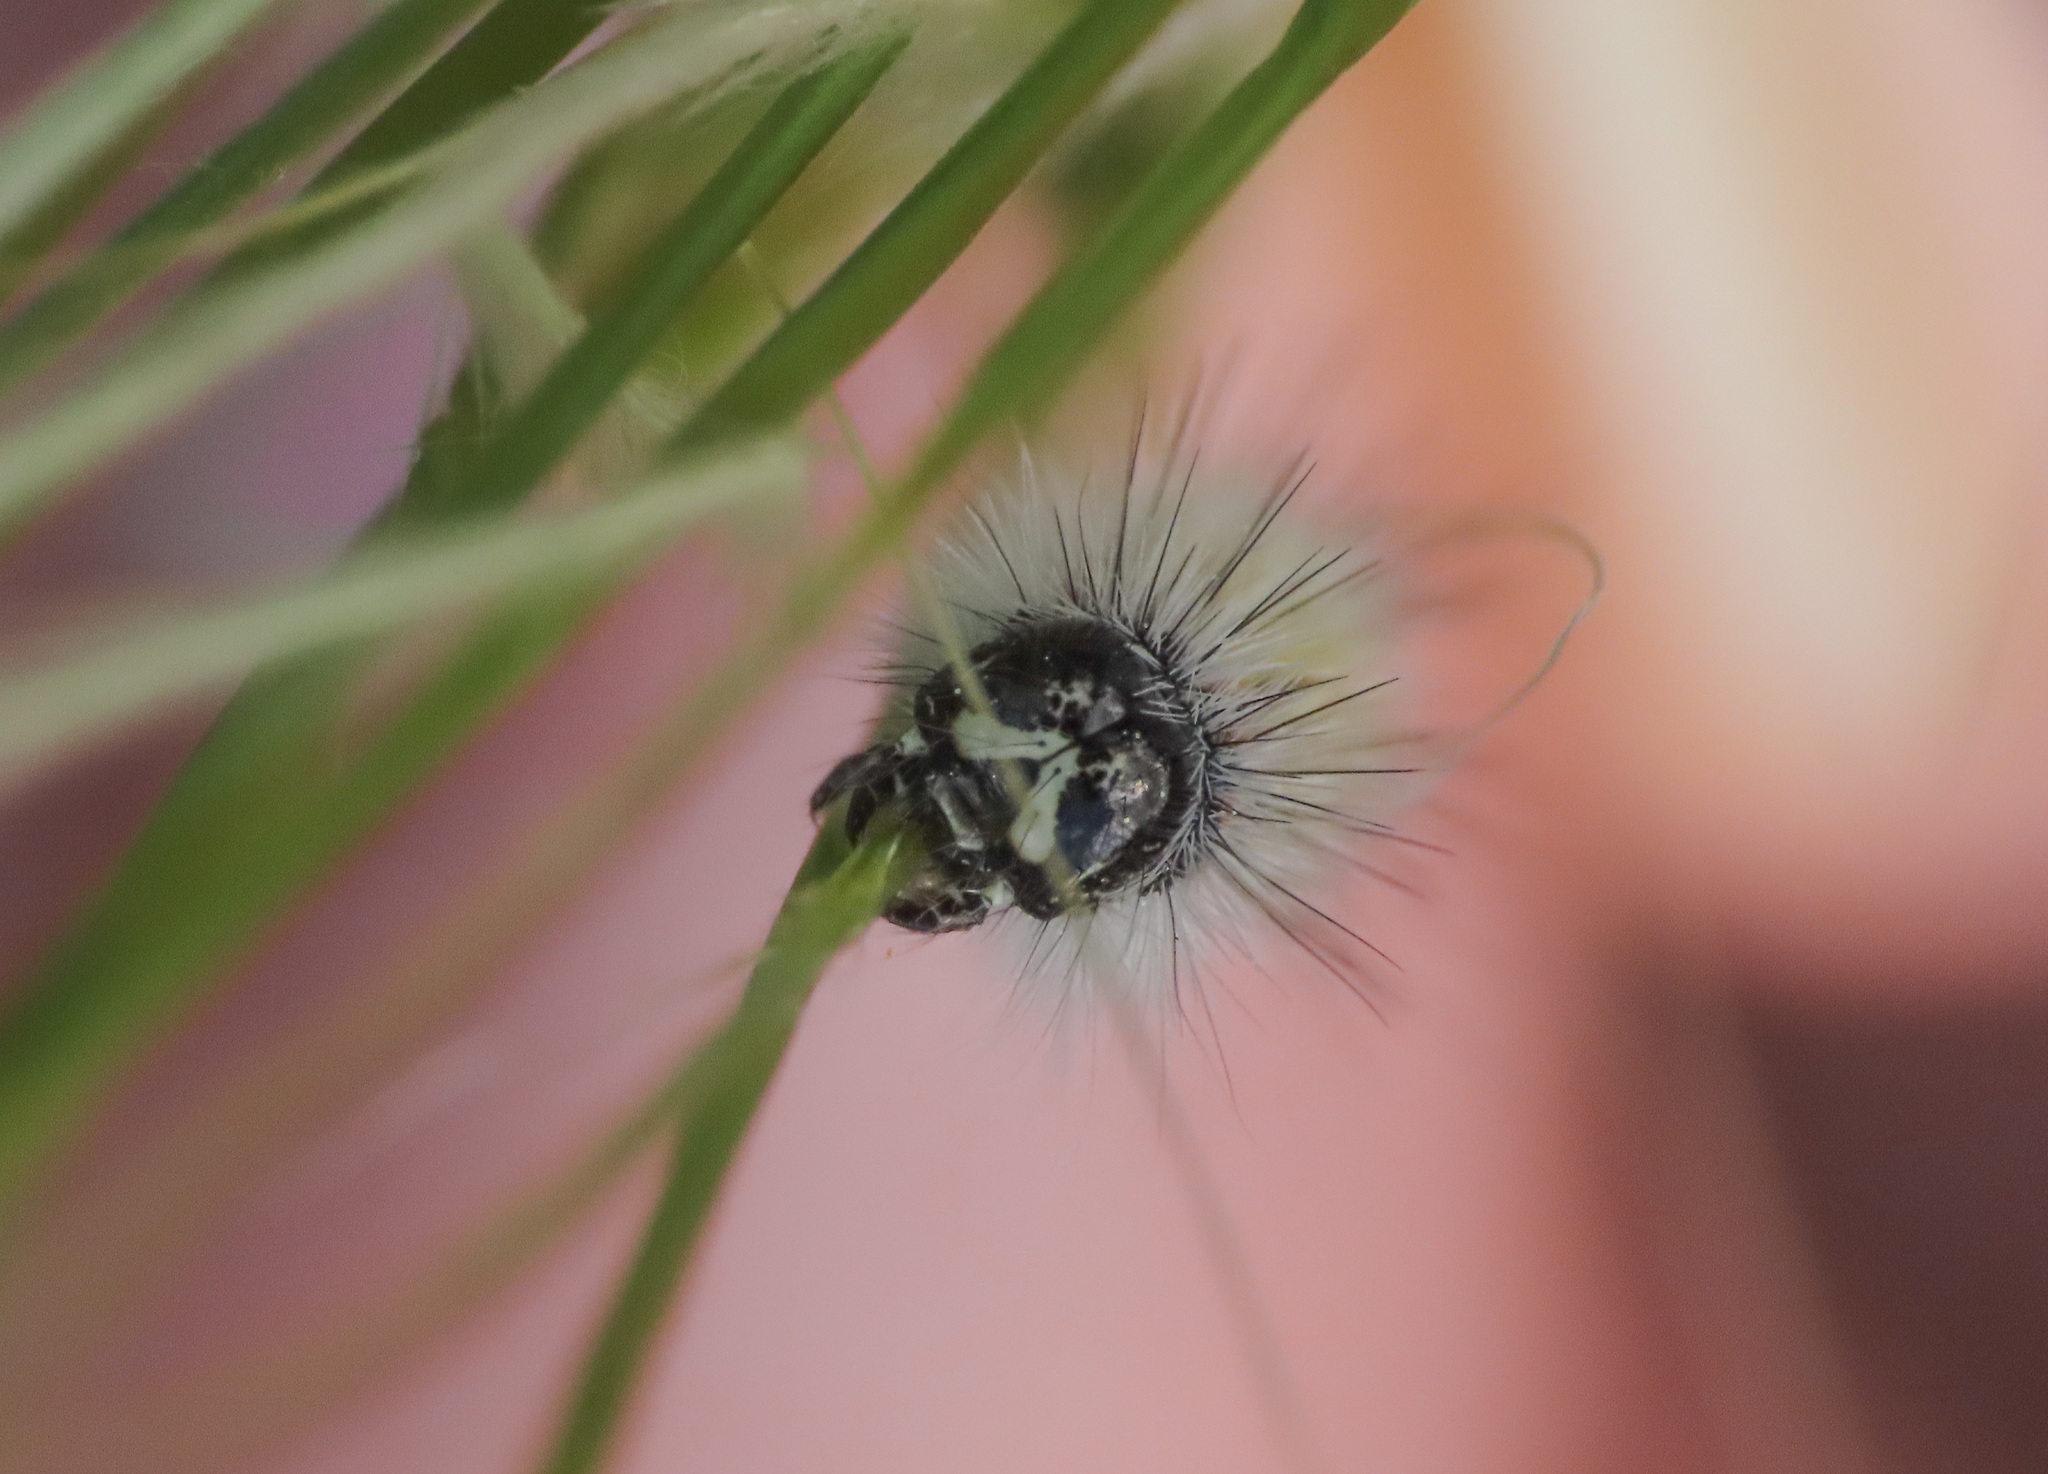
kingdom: Animalia
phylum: Arthropoda
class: Insecta
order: Lepidoptera
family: Erebidae
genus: Cymbalophora
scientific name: Cymbalophora rivularis
